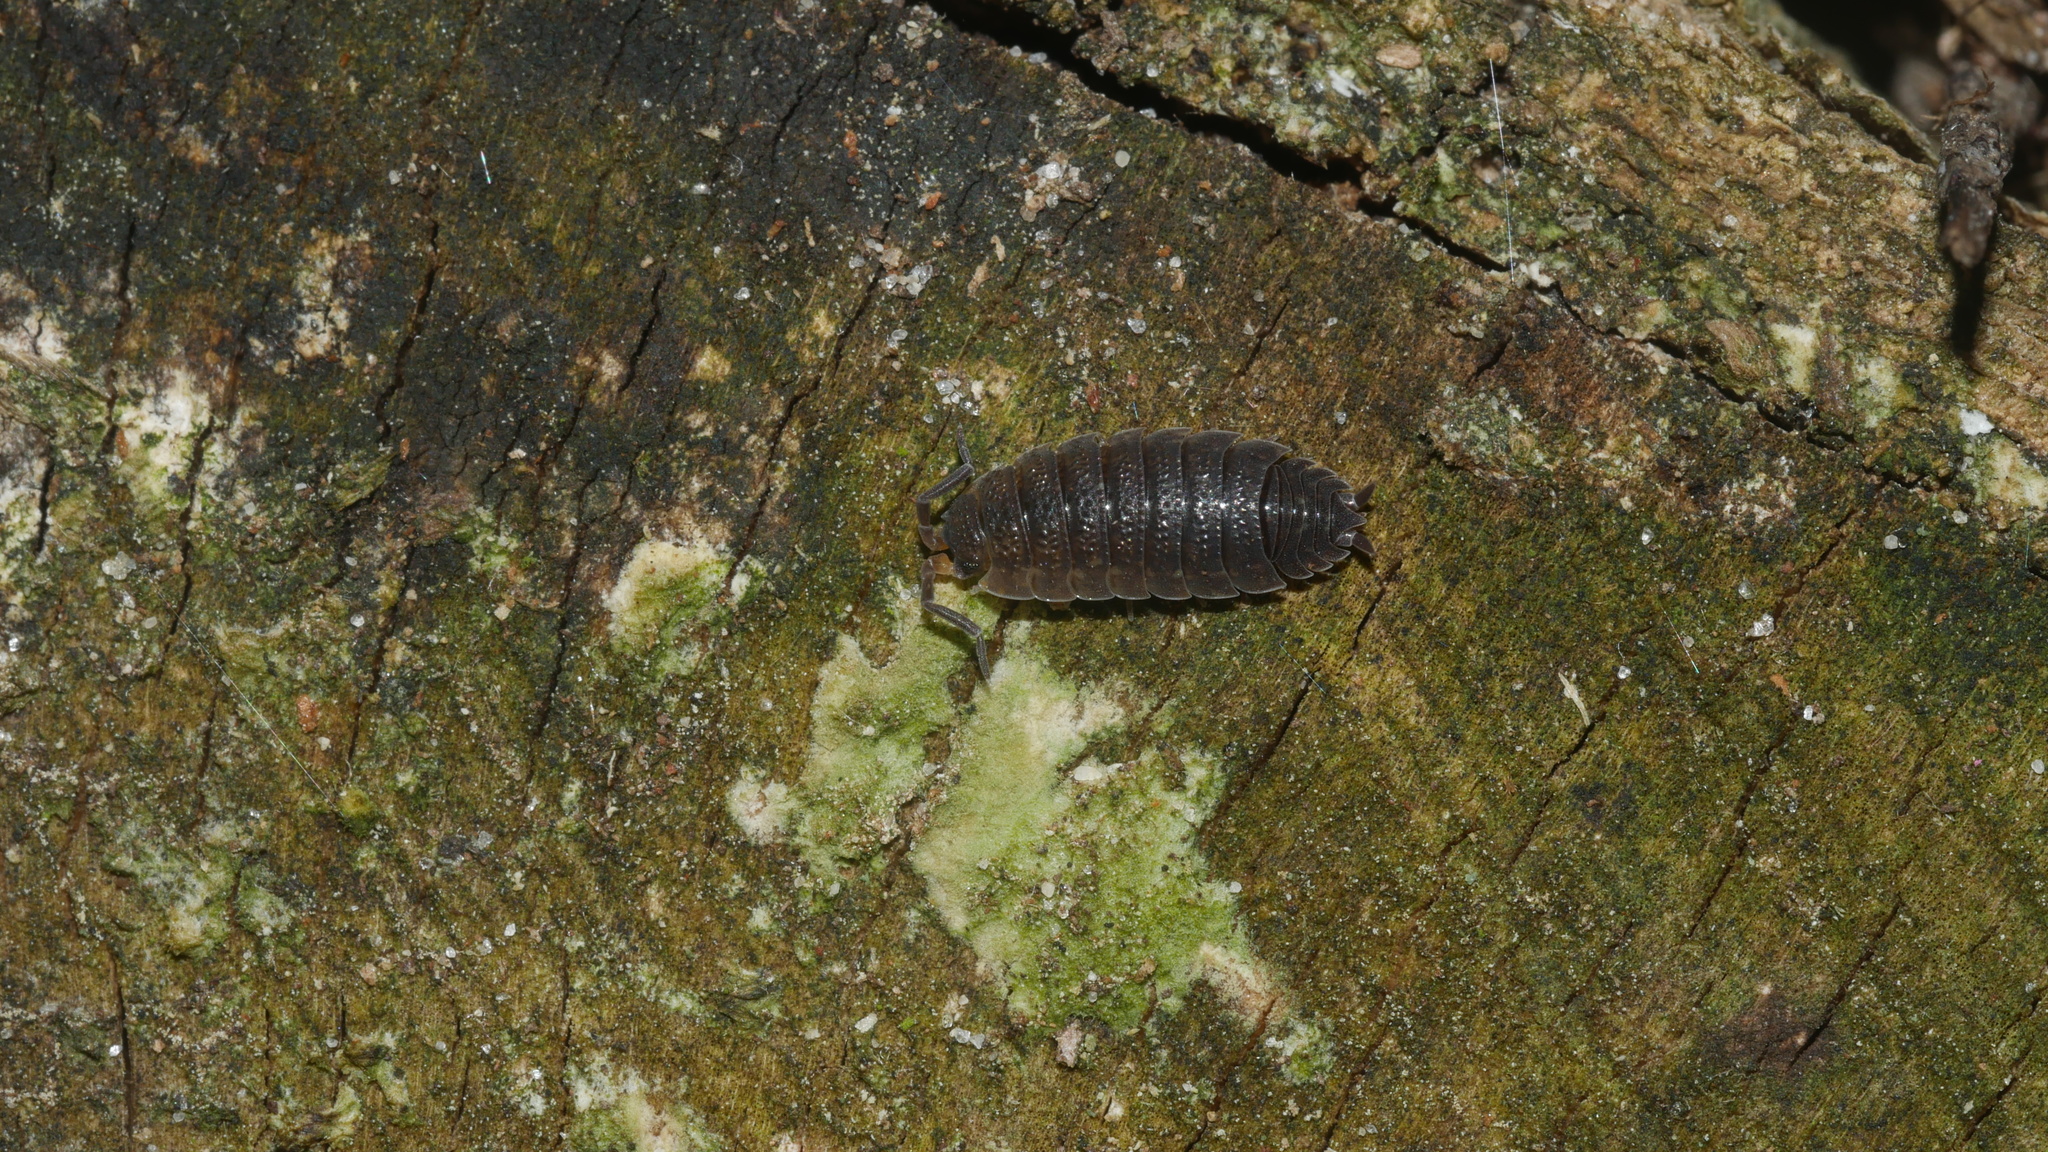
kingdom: Animalia
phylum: Arthropoda
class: Malacostraca
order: Isopoda
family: Porcellionidae
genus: Porcellio
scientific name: Porcellio scaber
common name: Common rough woodlouse
